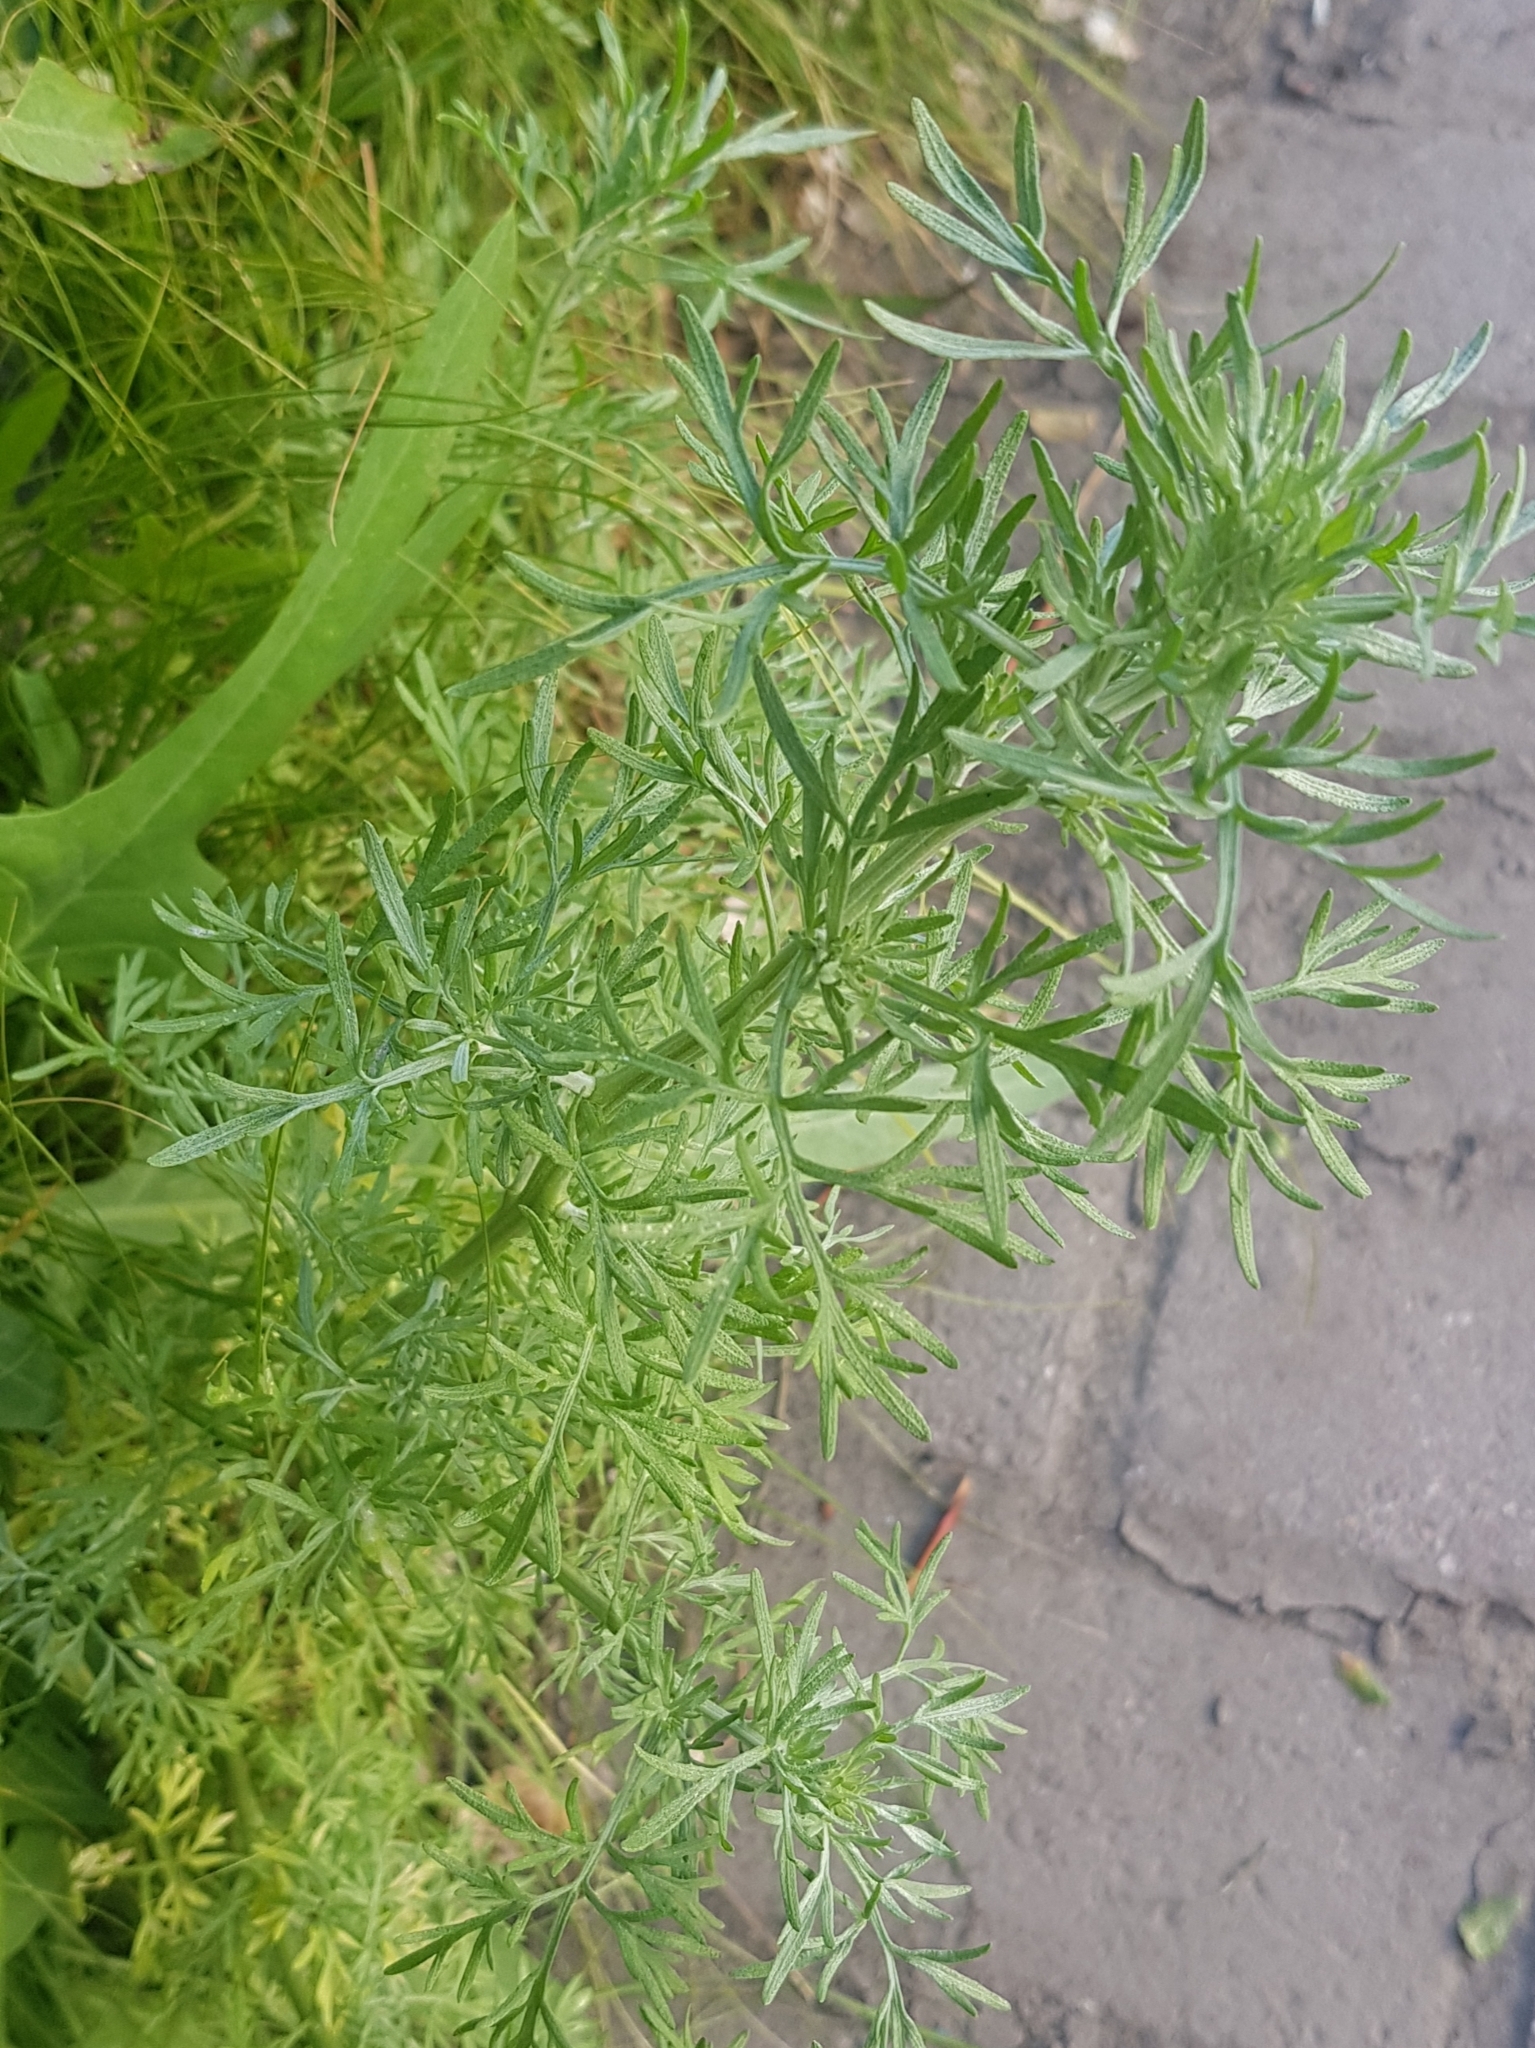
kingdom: Plantae
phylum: Tracheophyta
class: Magnoliopsida
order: Asterales
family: Asteraceae
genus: Artemisia
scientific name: Artemisia sieversiana
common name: Sieversian wormwood
